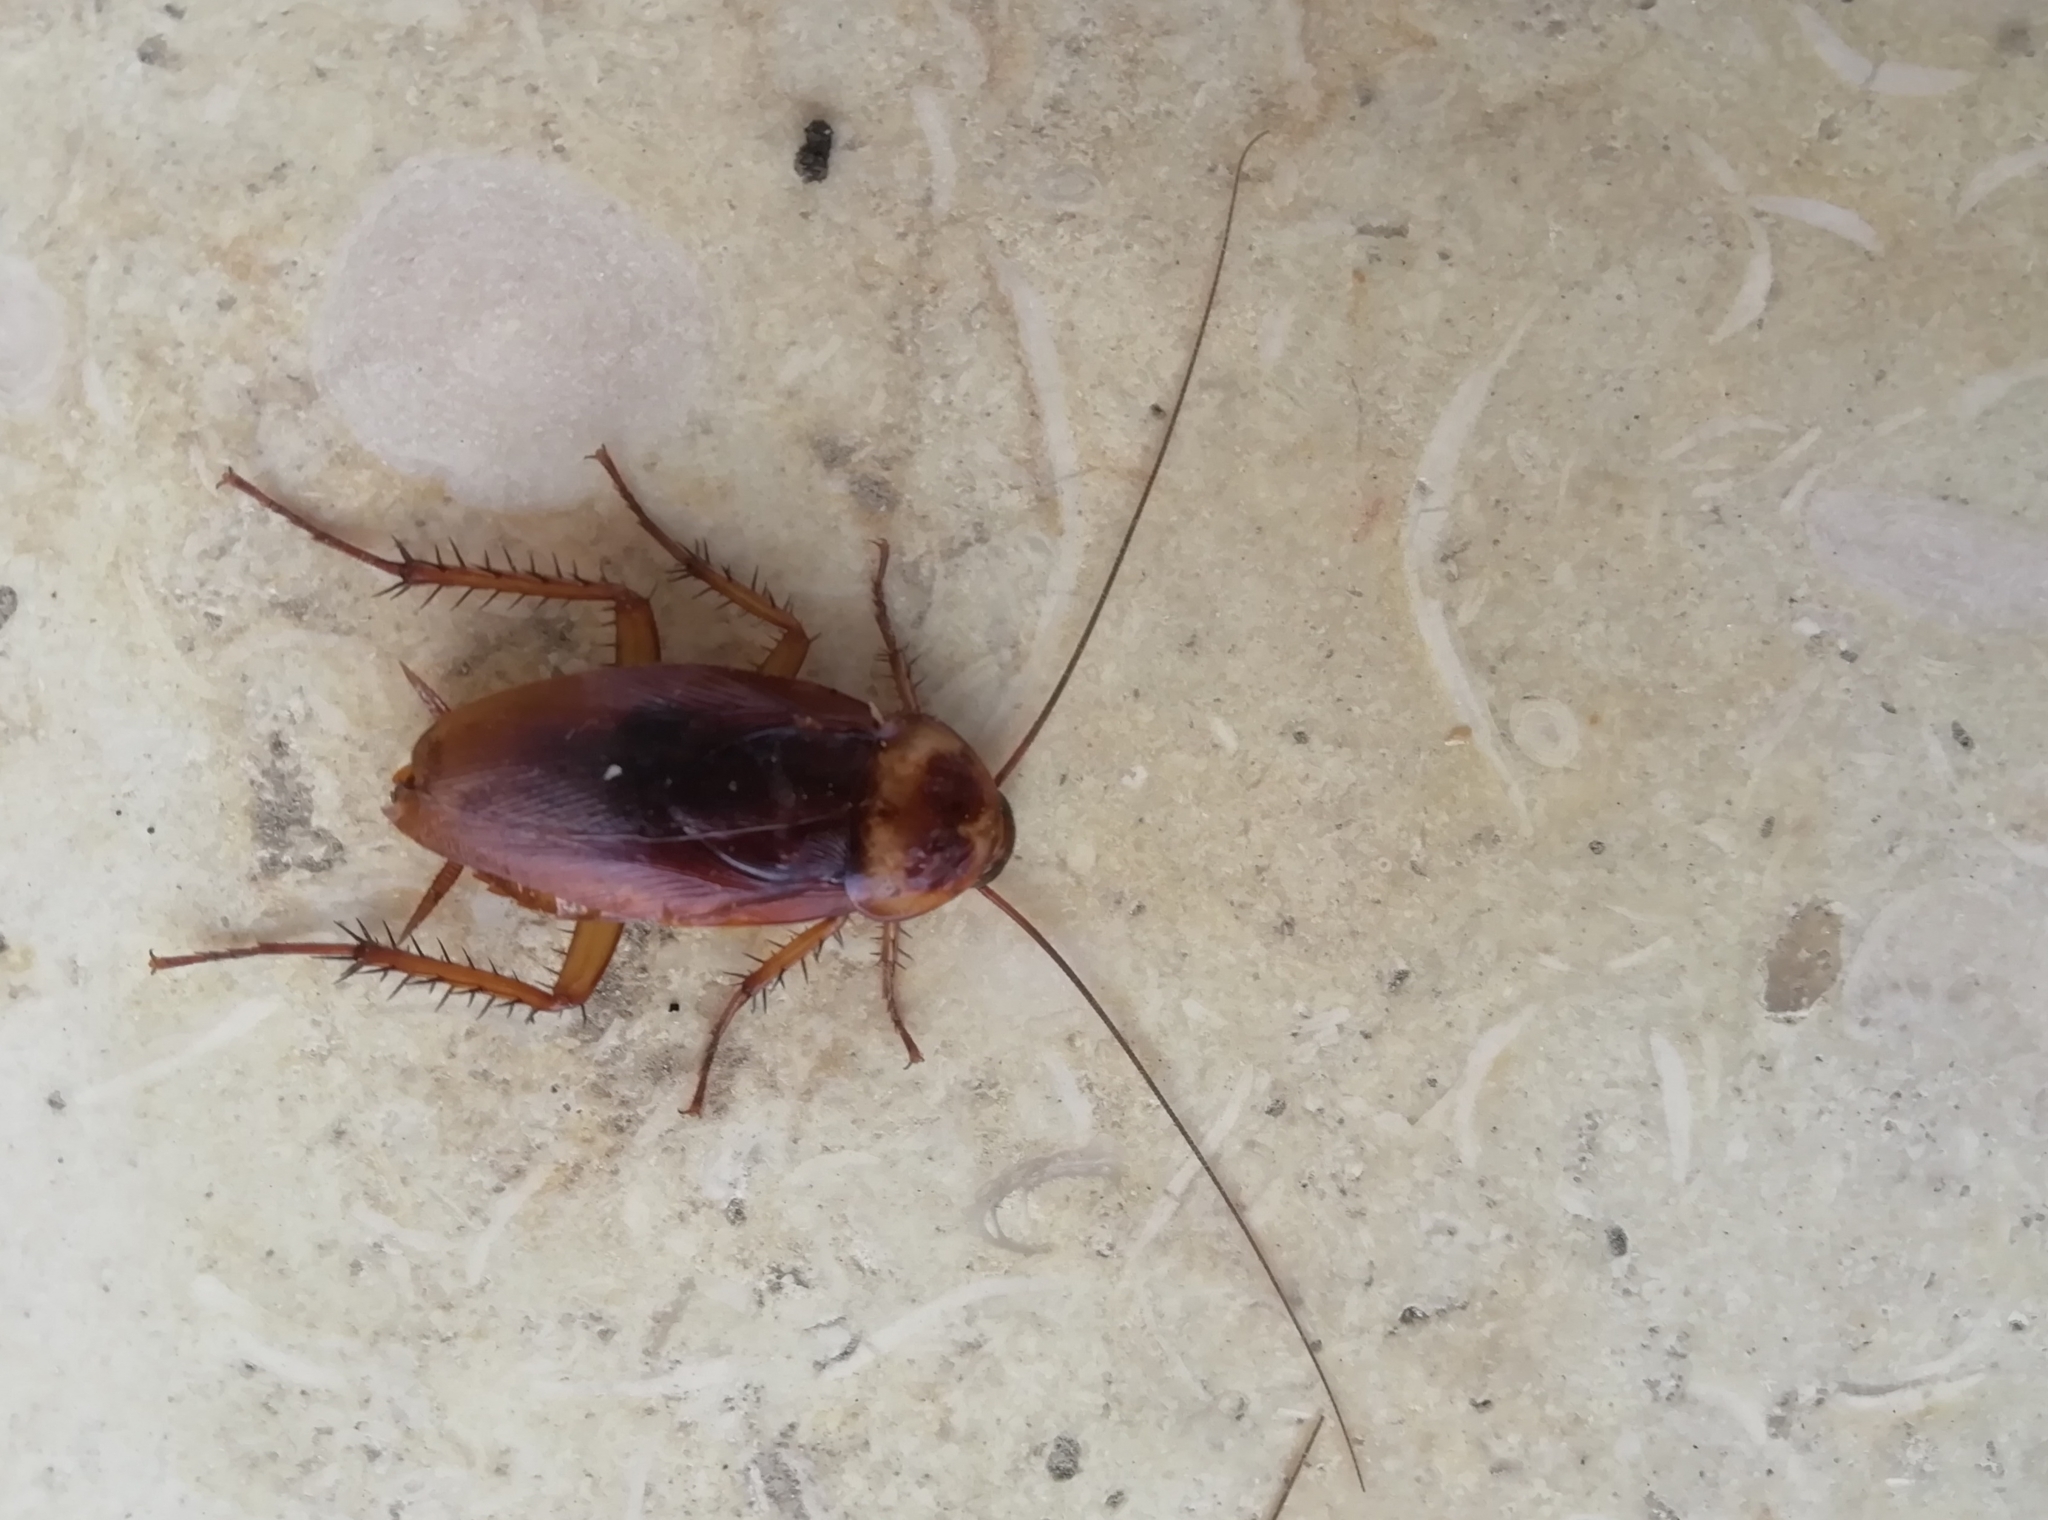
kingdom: Animalia
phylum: Arthropoda
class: Insecta
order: Blattodea
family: Blattidae
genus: Periplaneta
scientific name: Periplaneta americana
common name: American cockroach
